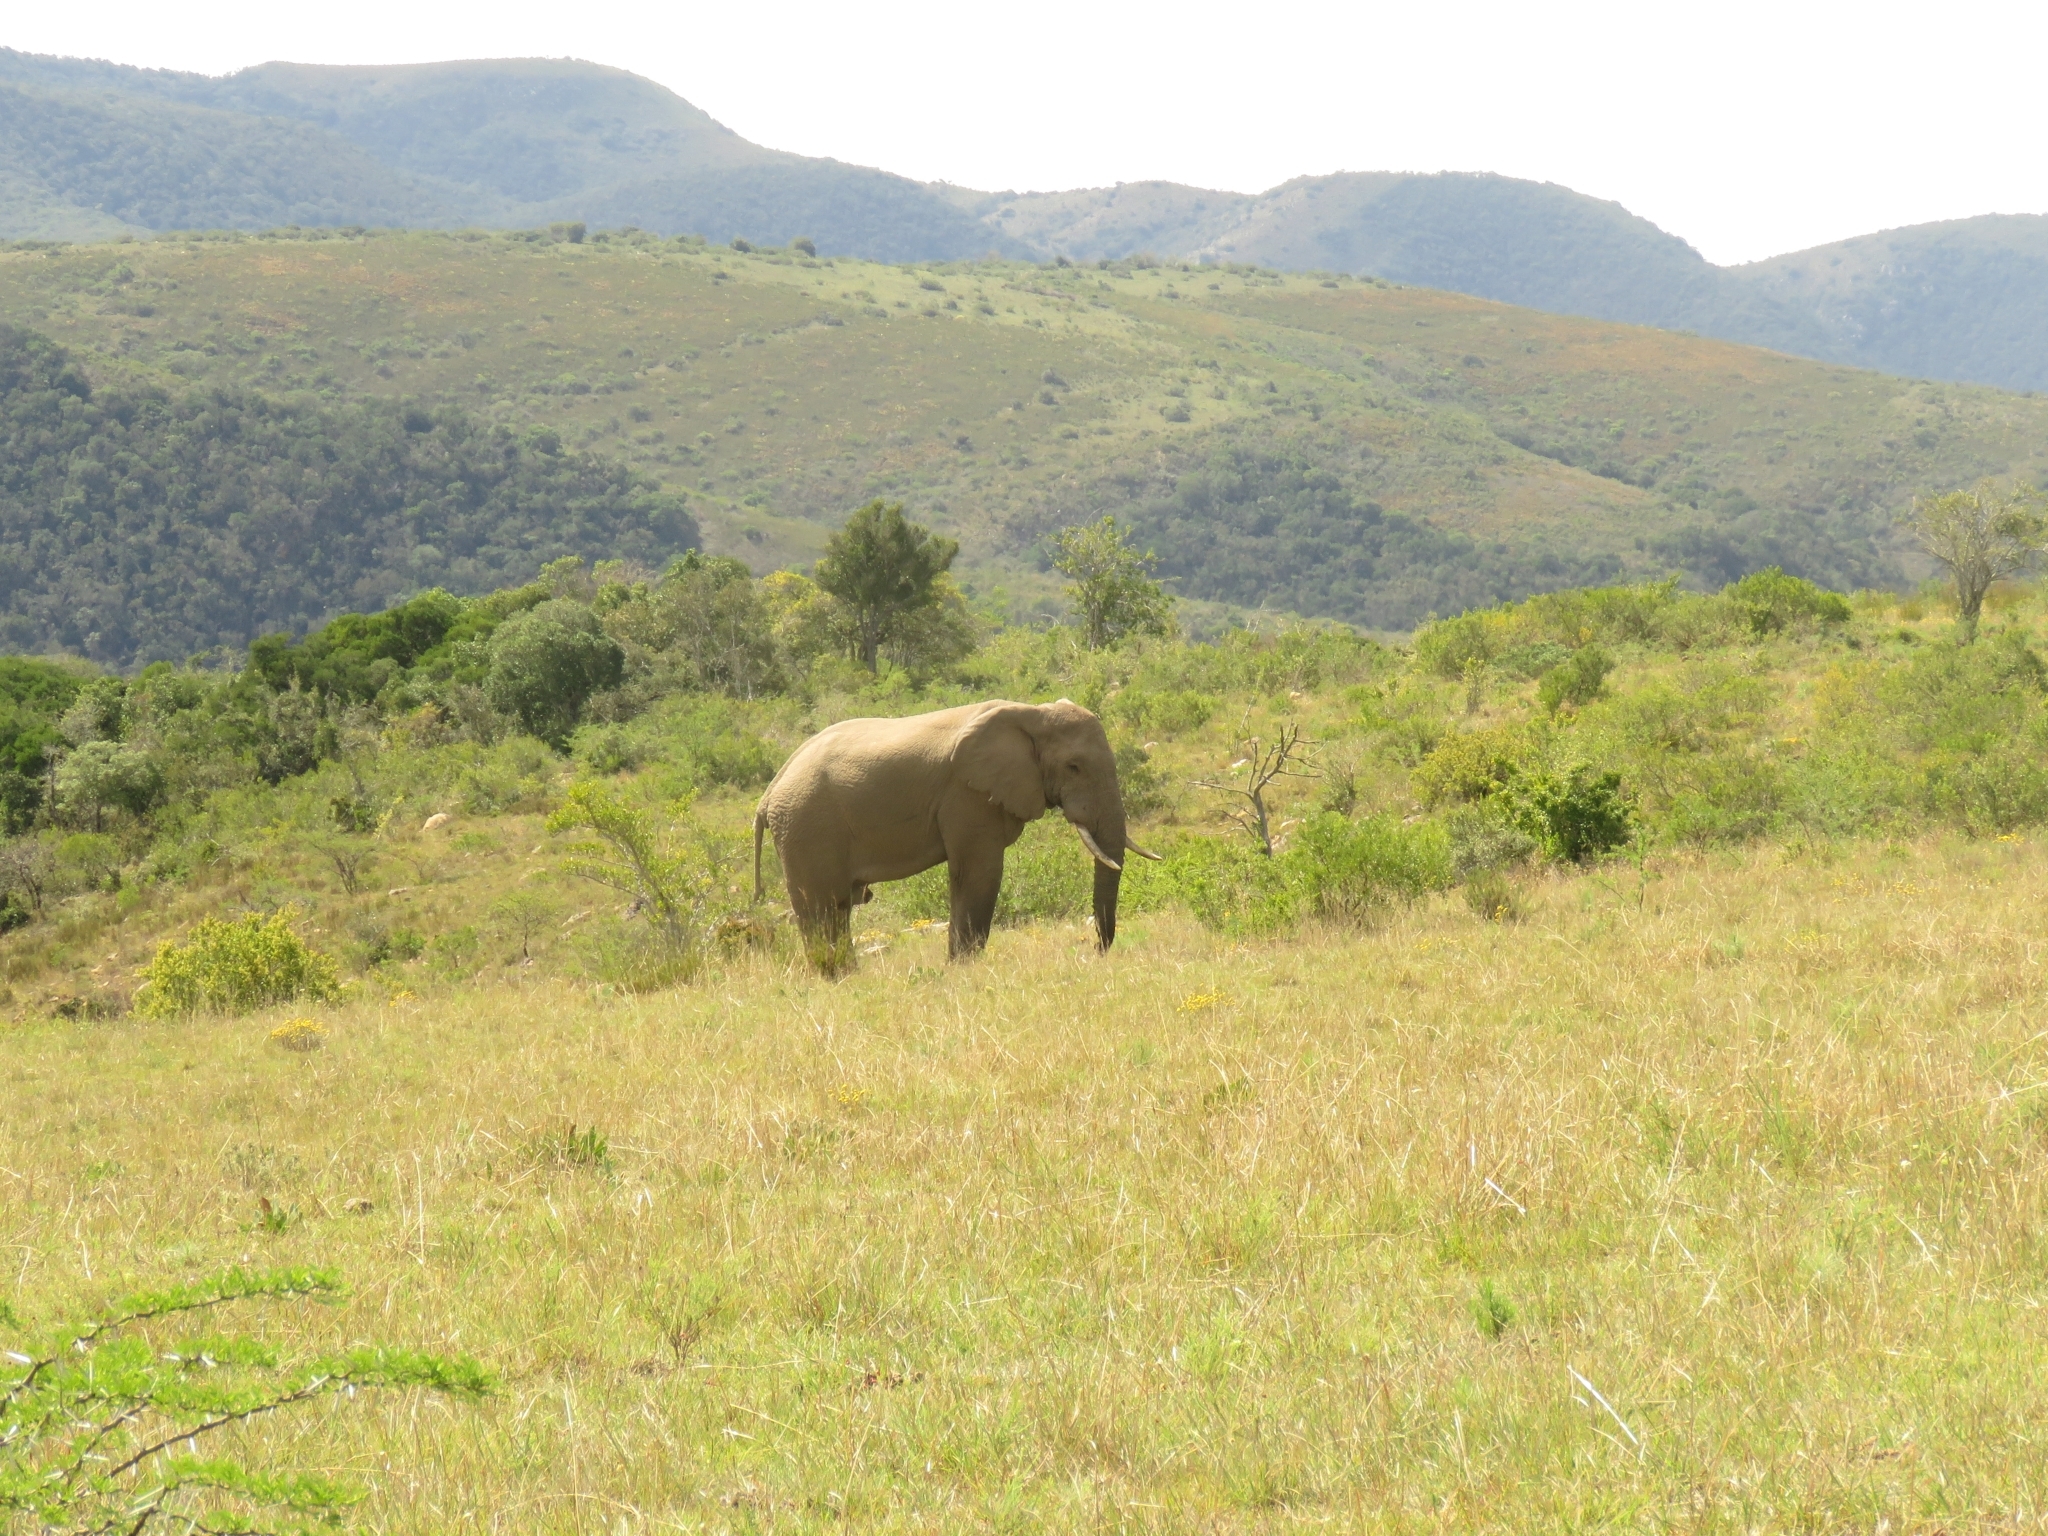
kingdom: Animalia
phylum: Chordata
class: Mammalia
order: Proboscidea
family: Elephantidae
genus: Loxodonta
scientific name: Loxodonta africana
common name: African elephant
